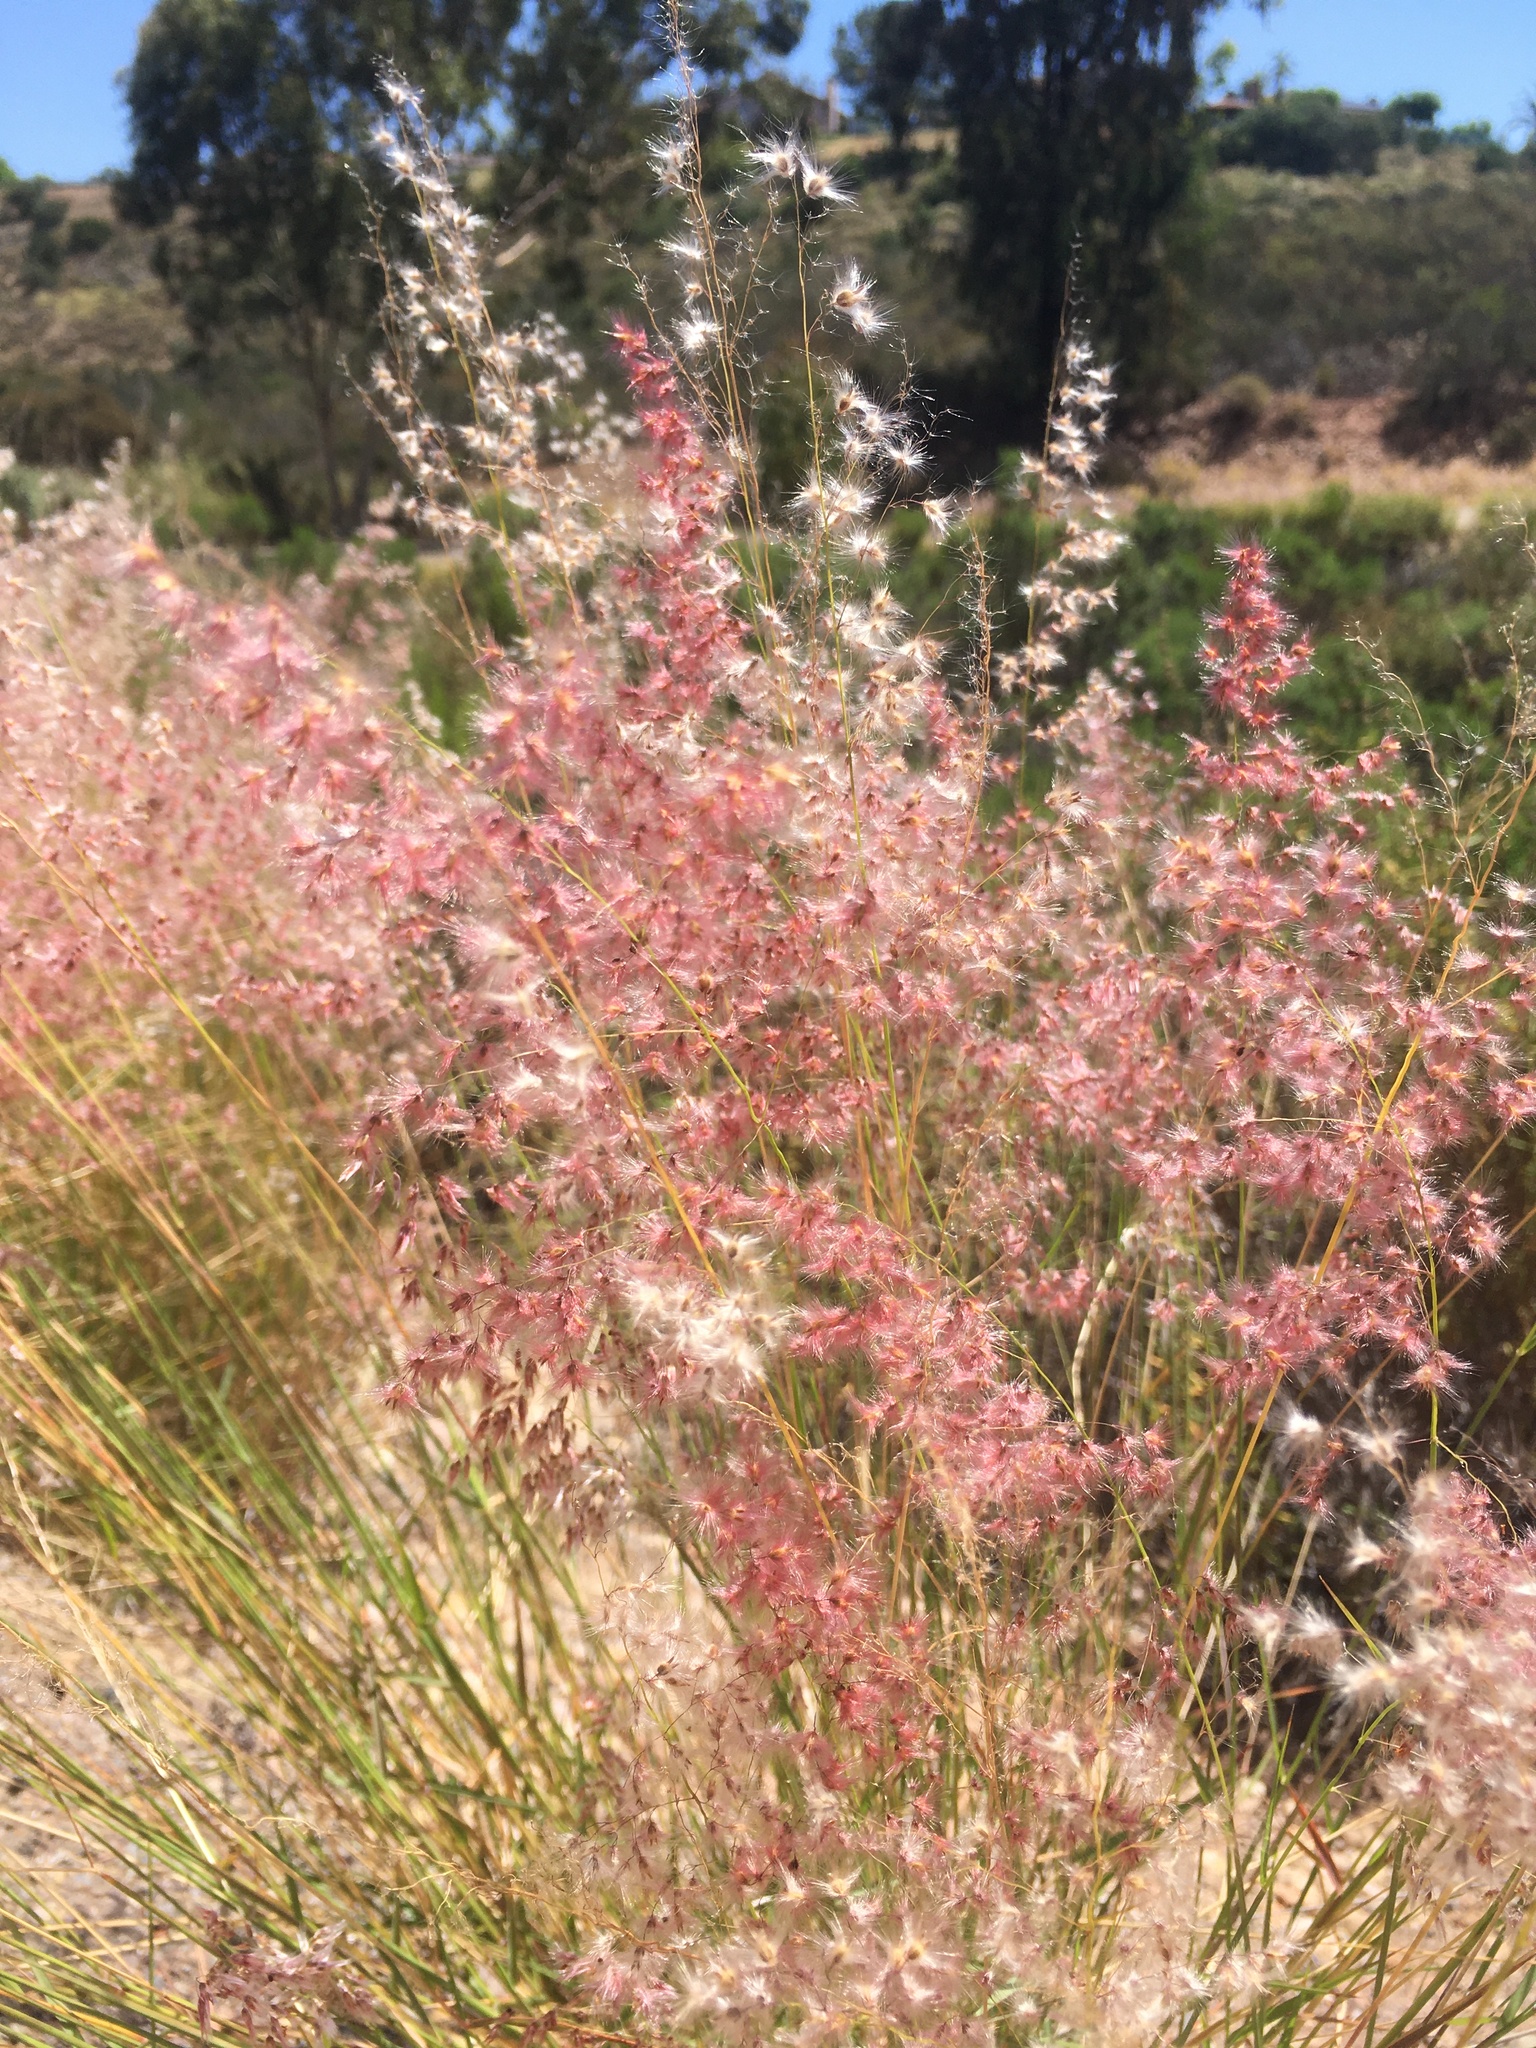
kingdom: Plantae
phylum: Tracheophyta
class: Liliopsida
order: Poales
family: Poaceae
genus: Melinis
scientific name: Melinis repens
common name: Rose natal grass
